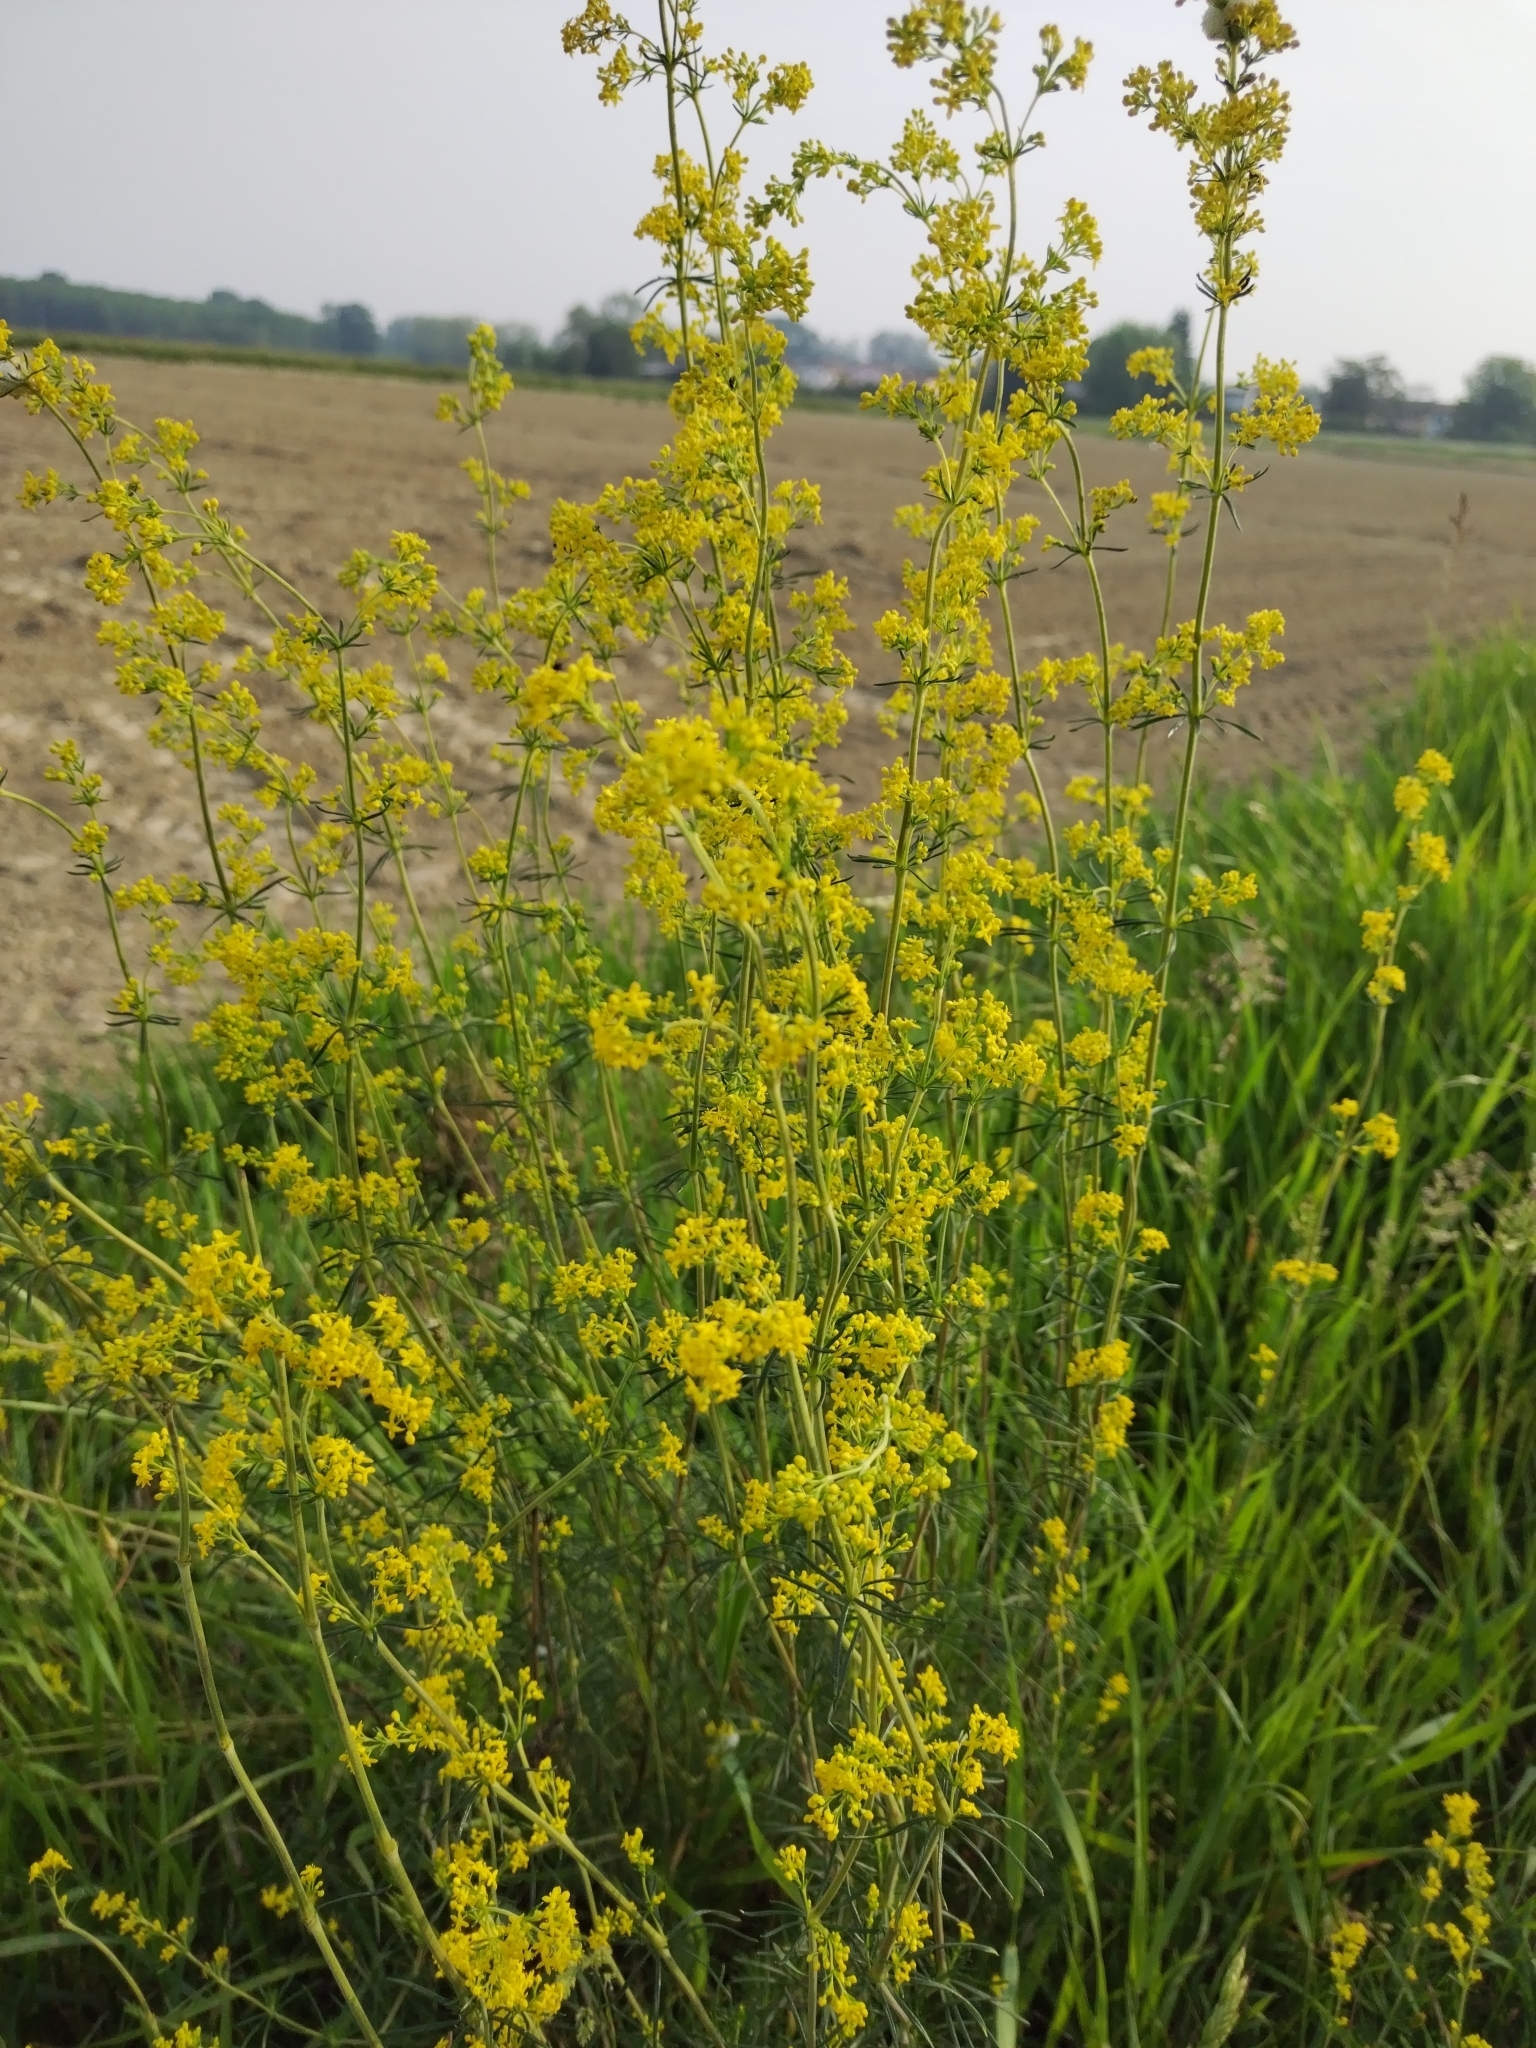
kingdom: Plantae
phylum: Tracheophyta
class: Magnoliopsida
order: Gentianales
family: Rubiaceae
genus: Galium
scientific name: Galium verum
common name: Lady's bedstraw
